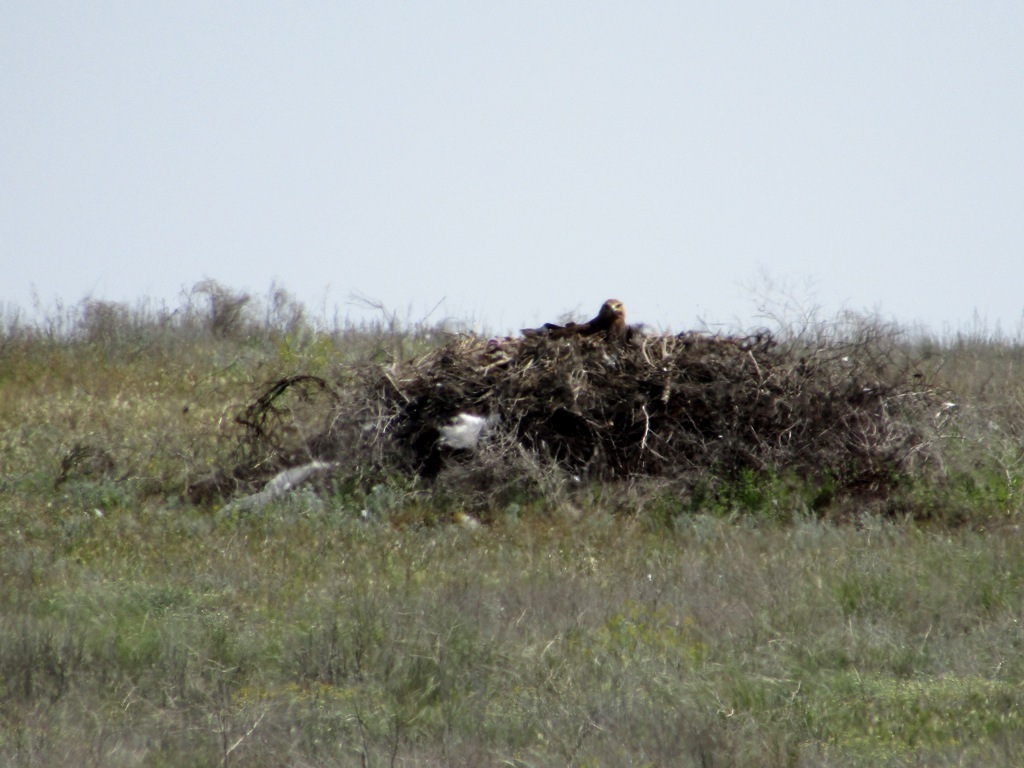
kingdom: Animalia
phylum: Chordata
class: Aves
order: Accipitriformes
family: Accipitridae
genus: Aquila
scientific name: Aquila nipalensis
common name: Steppe eagle
